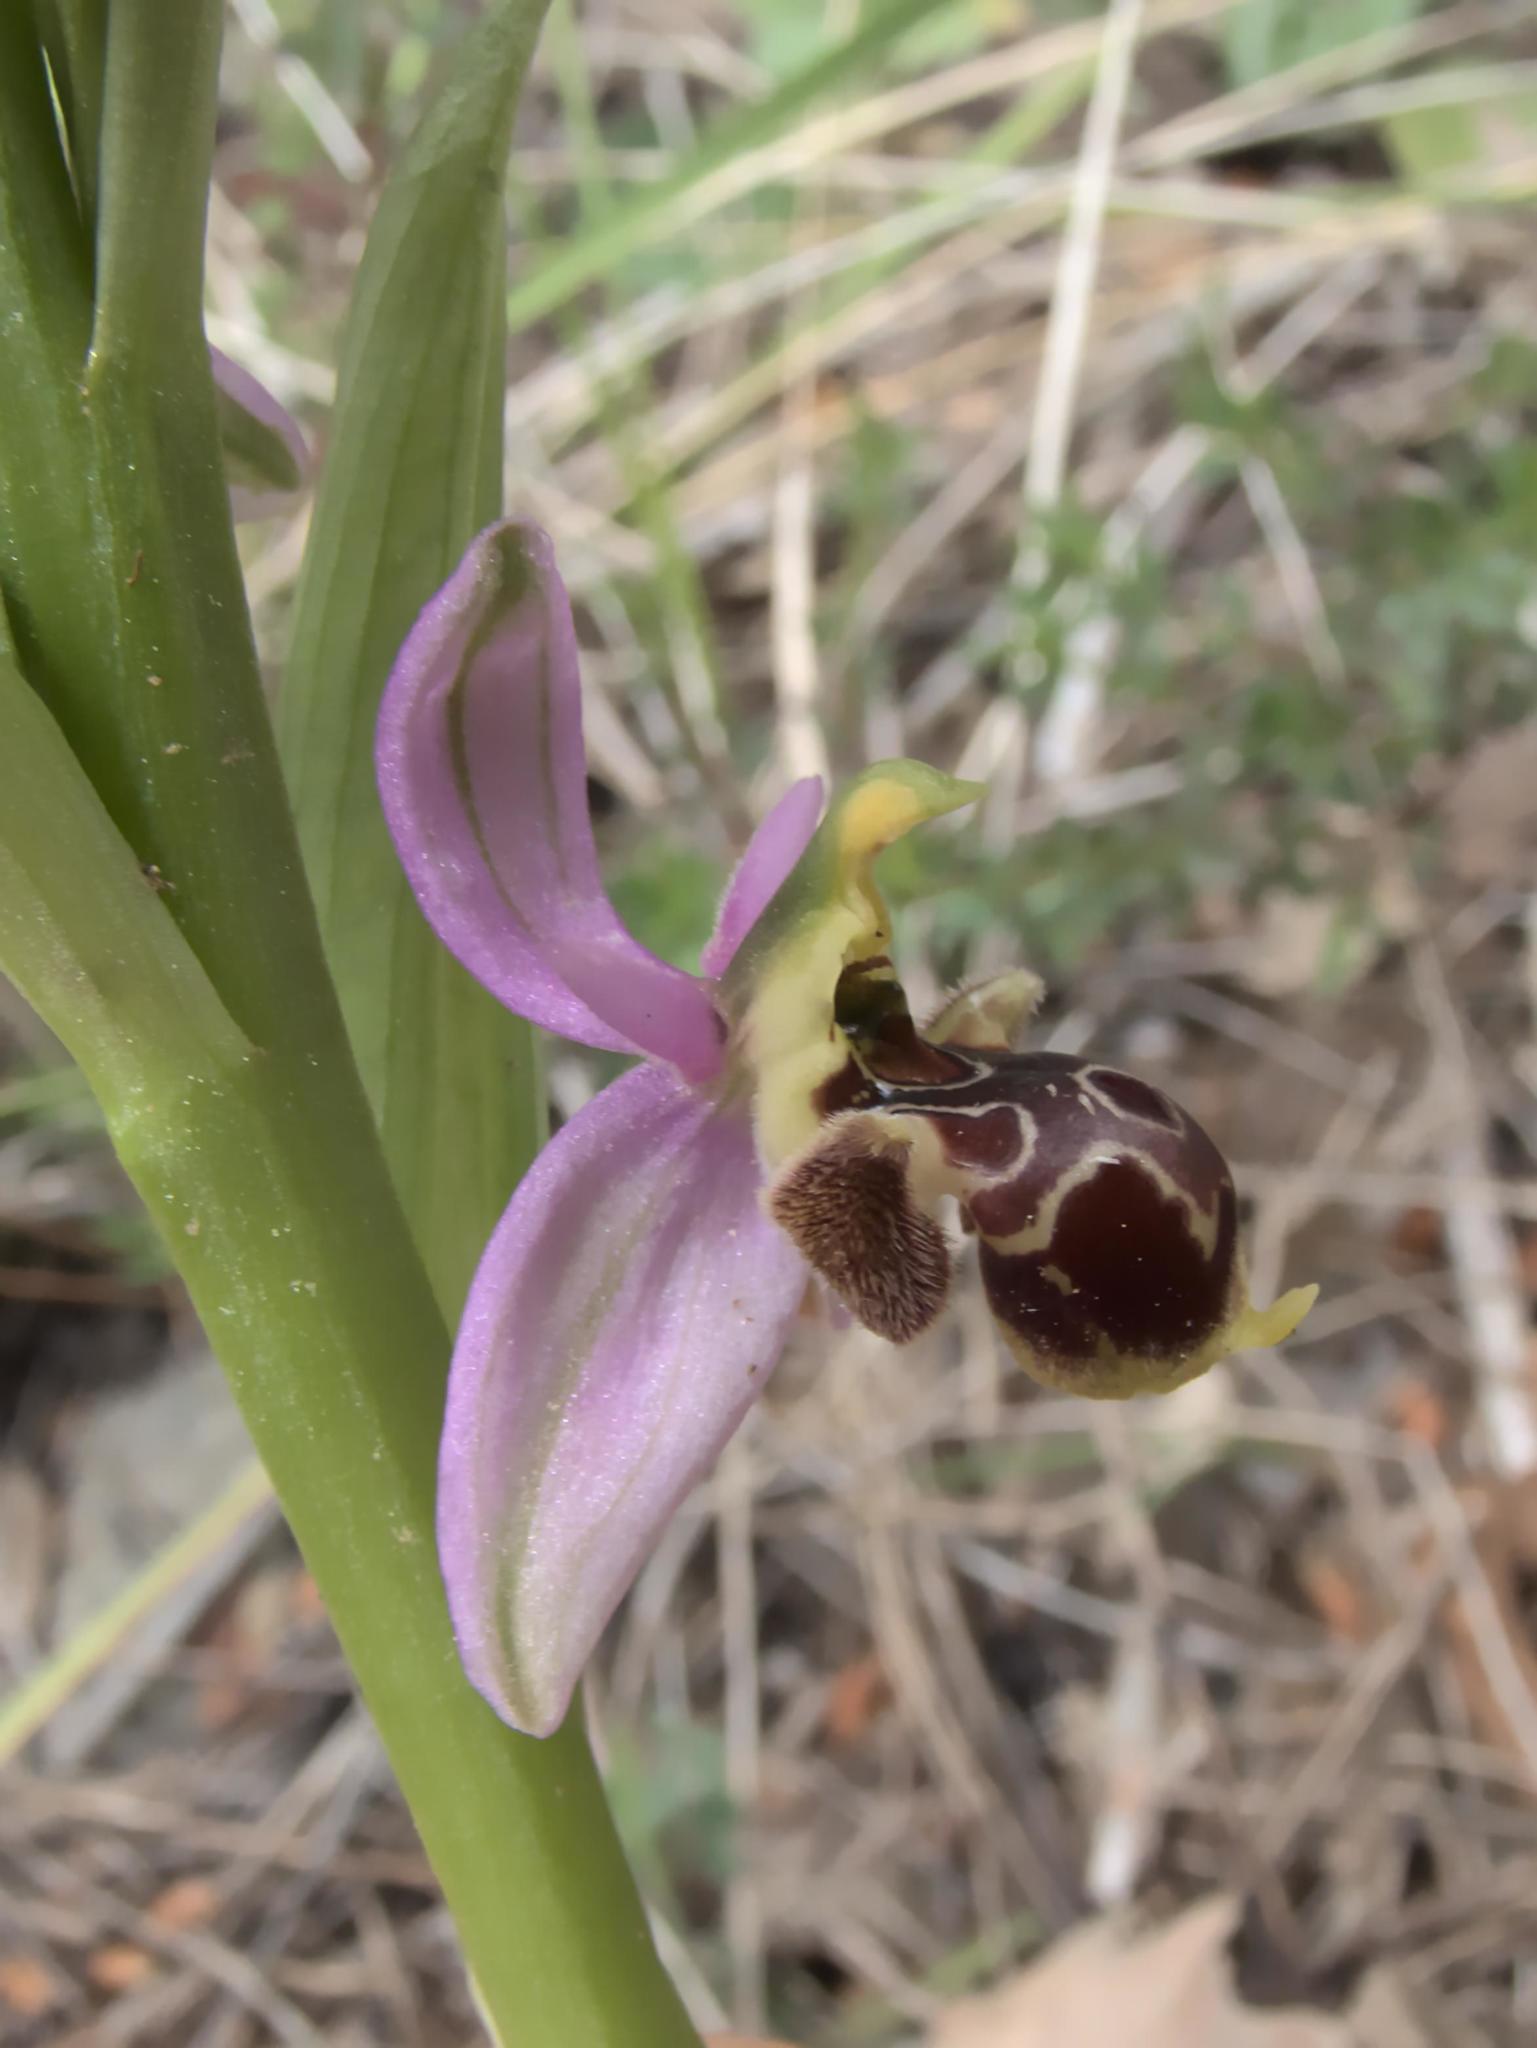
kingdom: Plantae
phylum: Tracheophyta
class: Liliopsida
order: Asparagales
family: Orchidaceae
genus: Ophrys
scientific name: Ophrys scolopax
